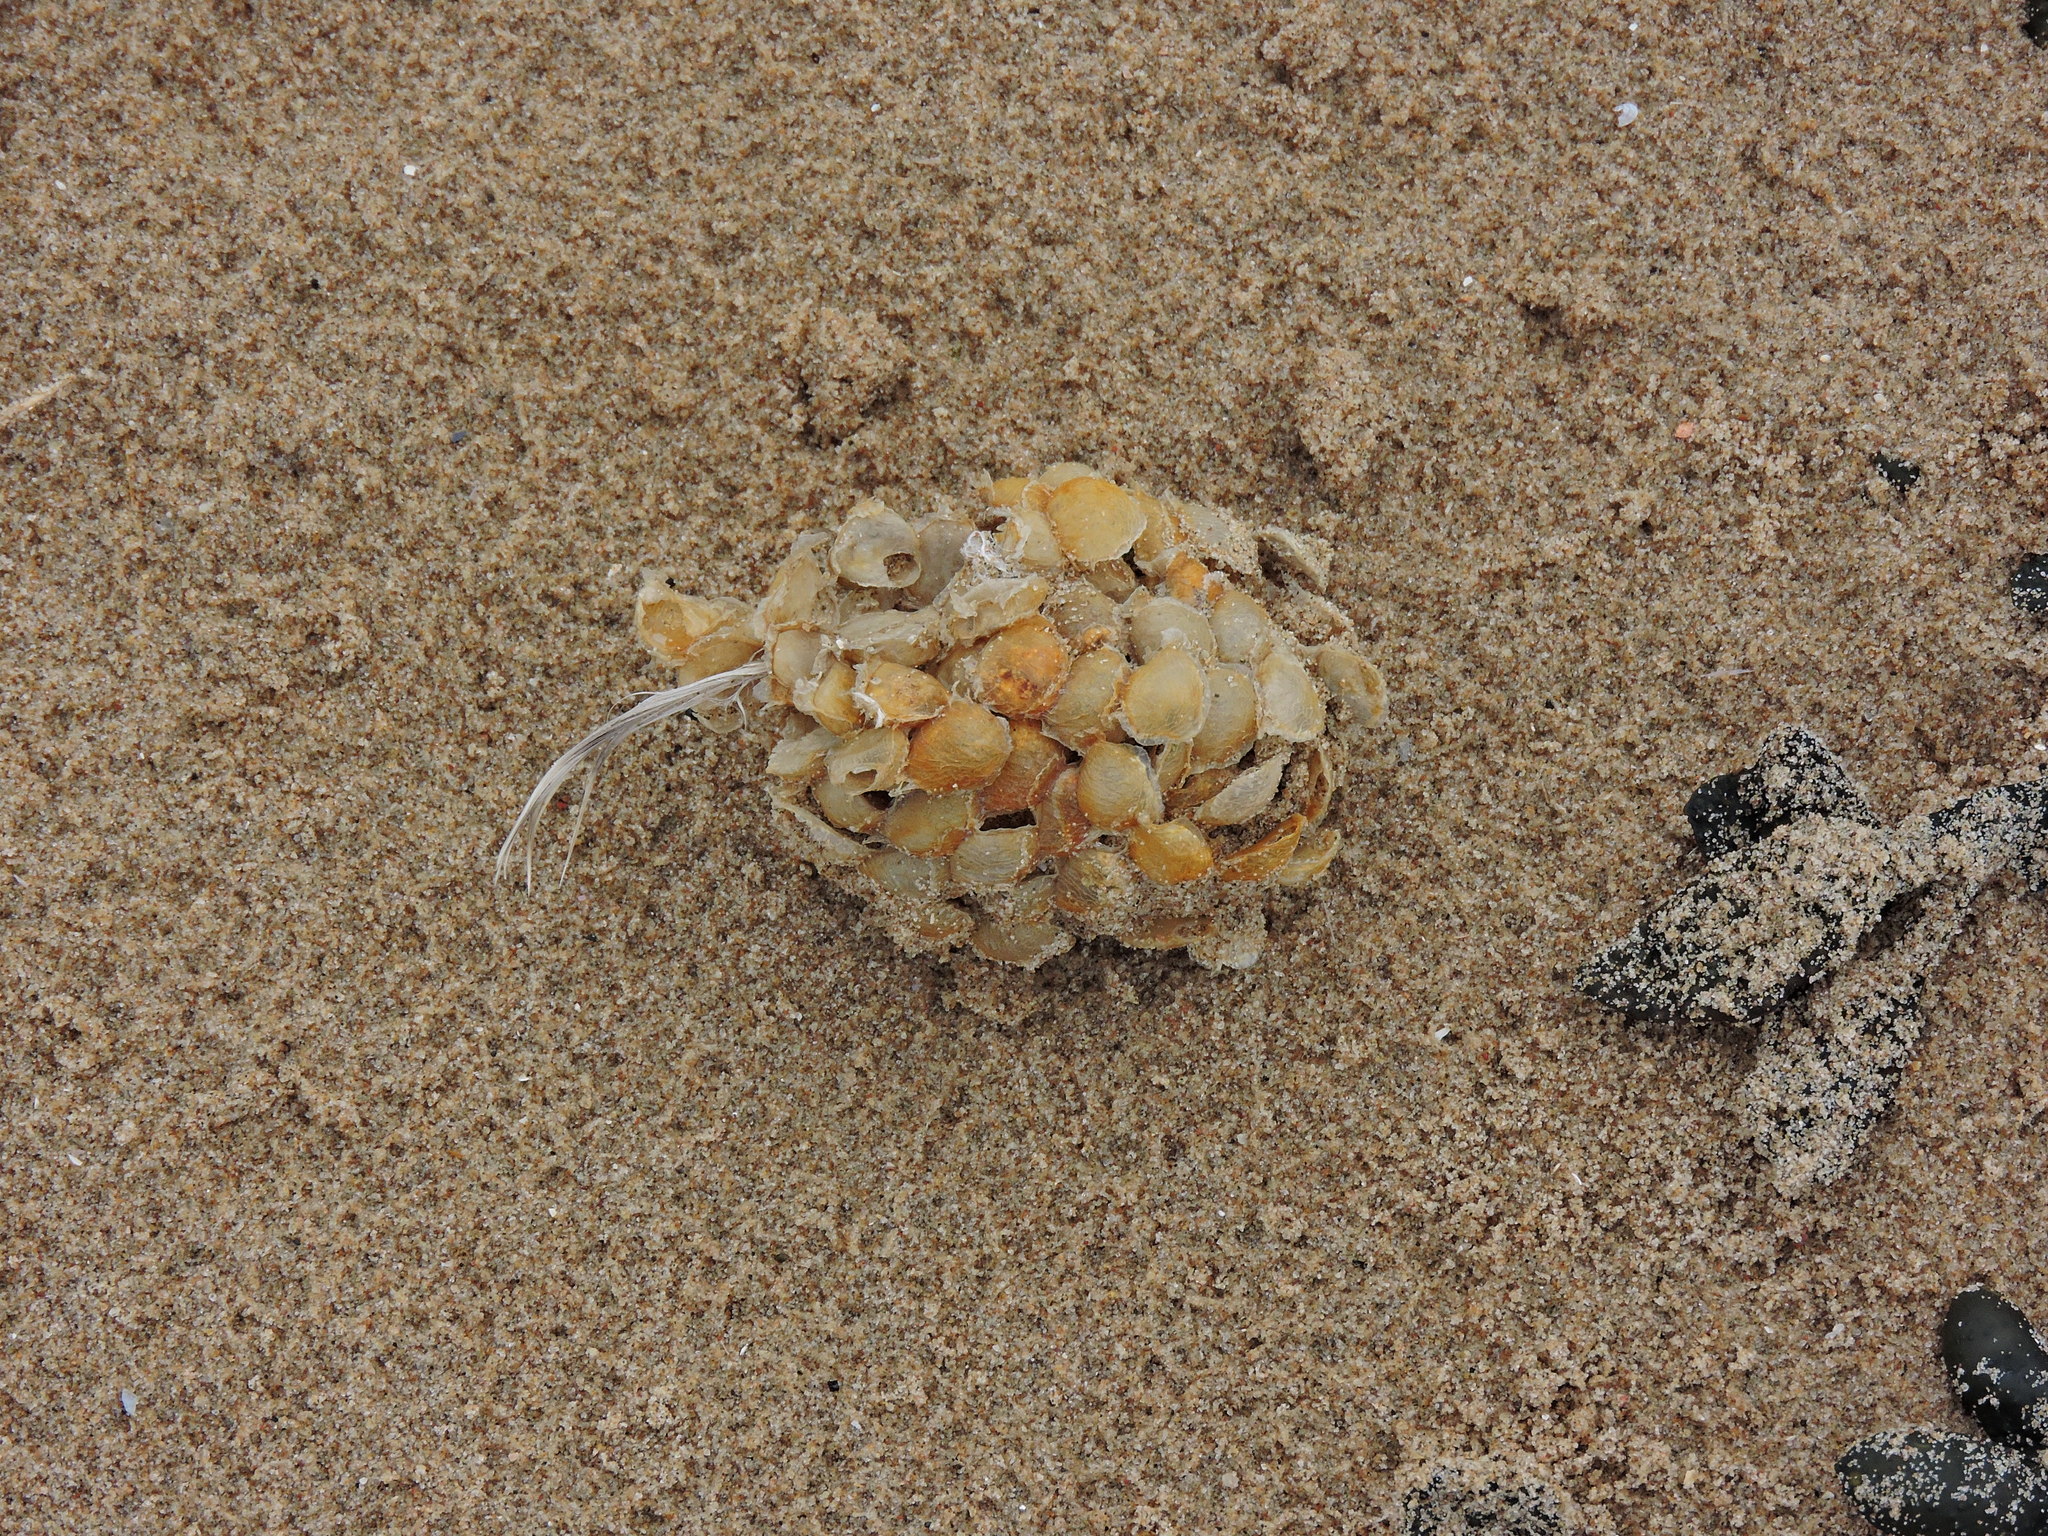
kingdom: Animalia
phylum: Mollusca
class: Gastropoda
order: Neogastropoda
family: Buccinidae
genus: Buccinum
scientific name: Buccinum undatum
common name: Common whelk
